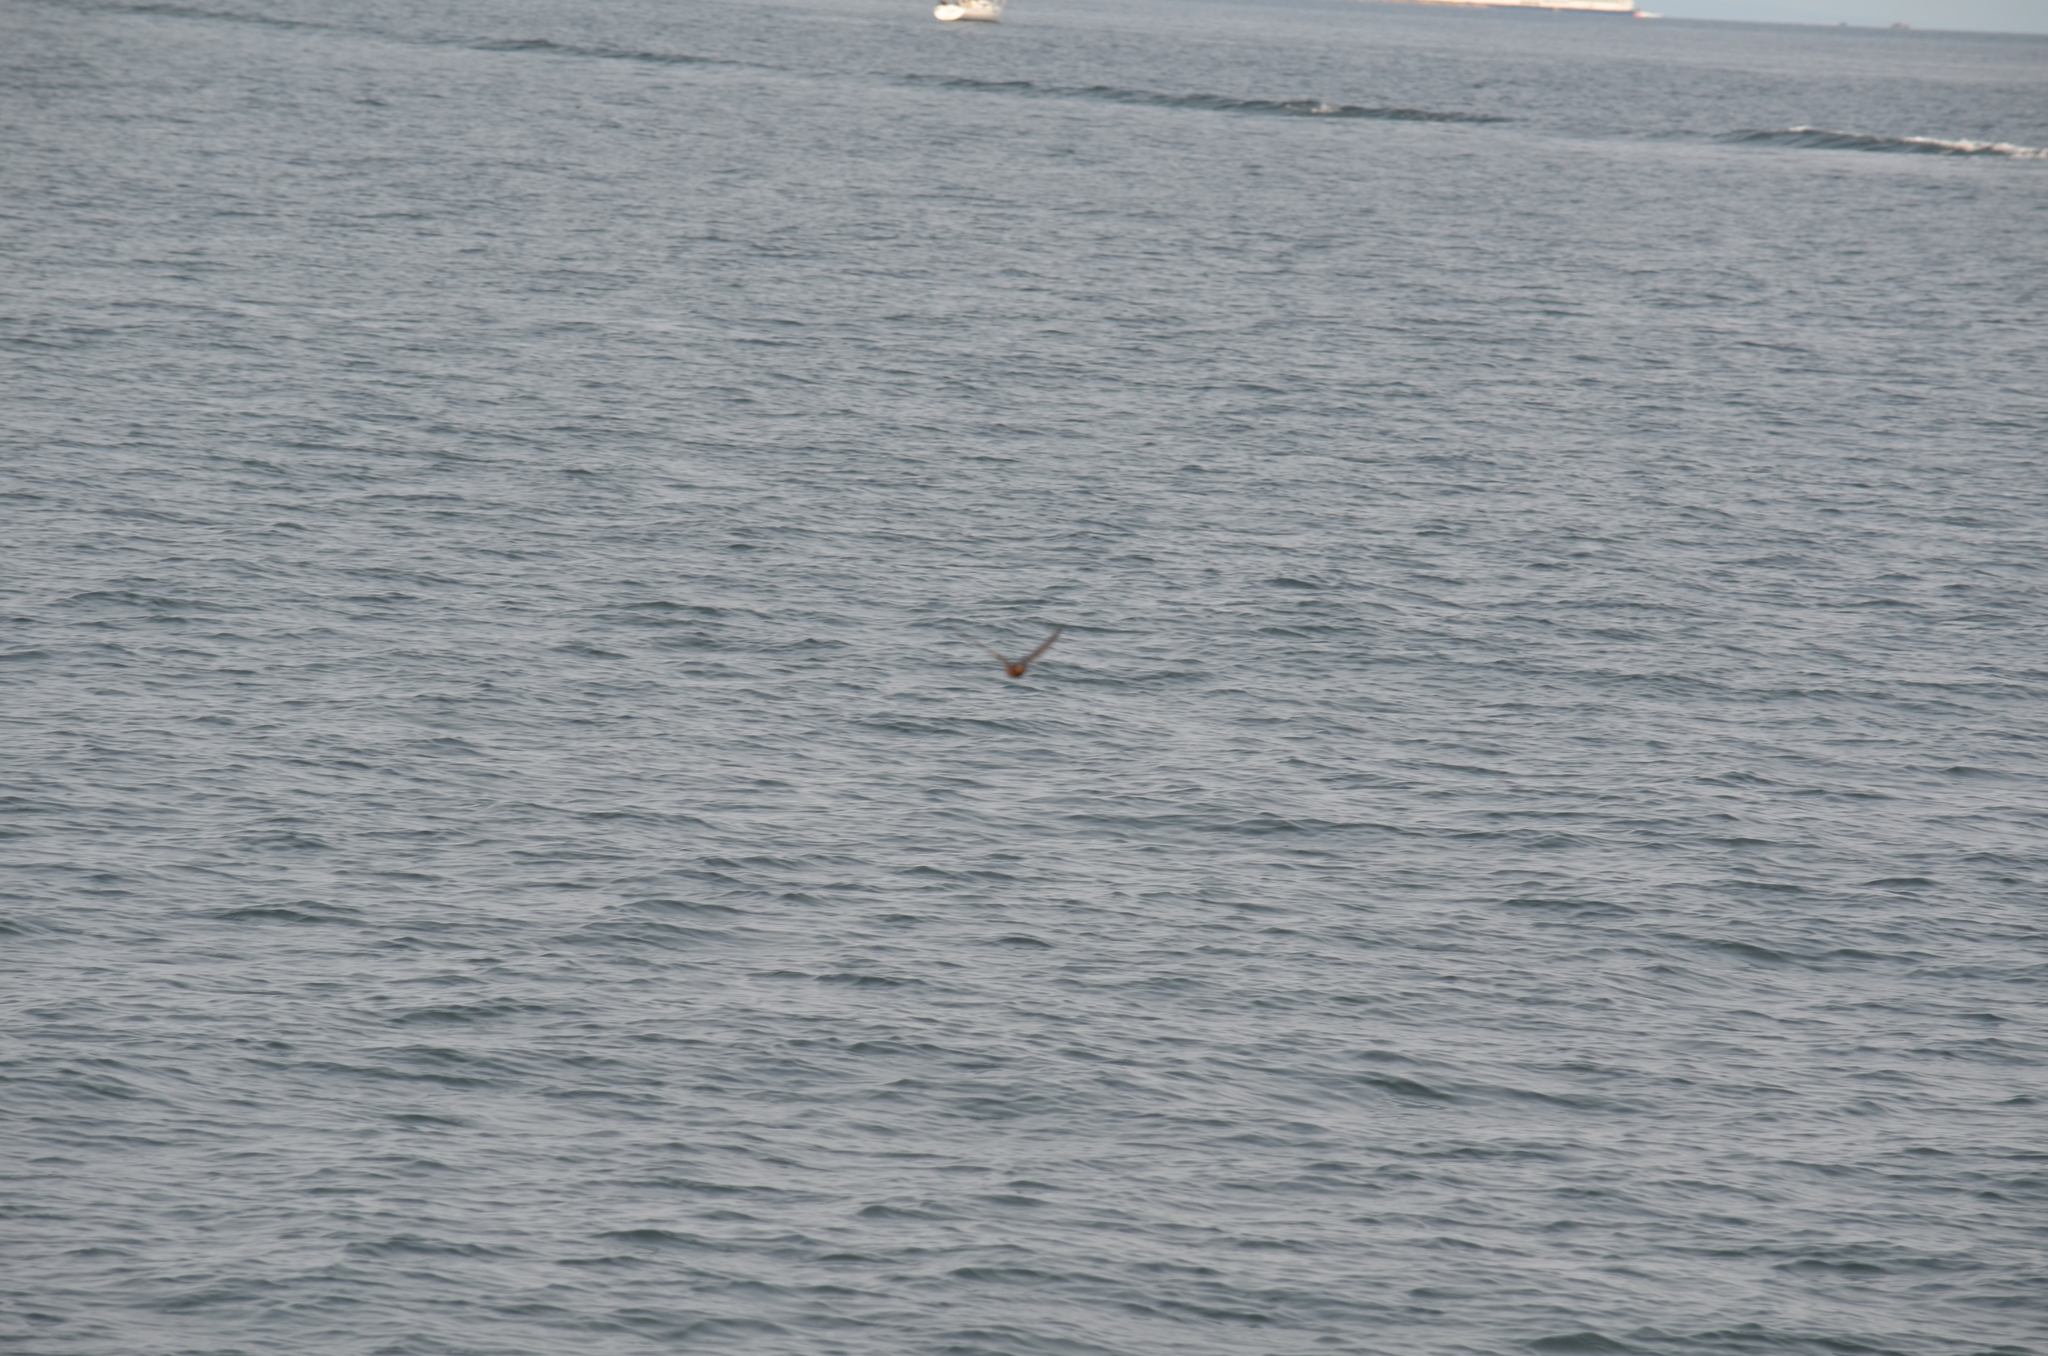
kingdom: Animalia
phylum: Chordata
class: Aves
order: Passeriformes
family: Hirundinidae
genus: Hirundo
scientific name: Hirundo rustica
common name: Barn swallow
